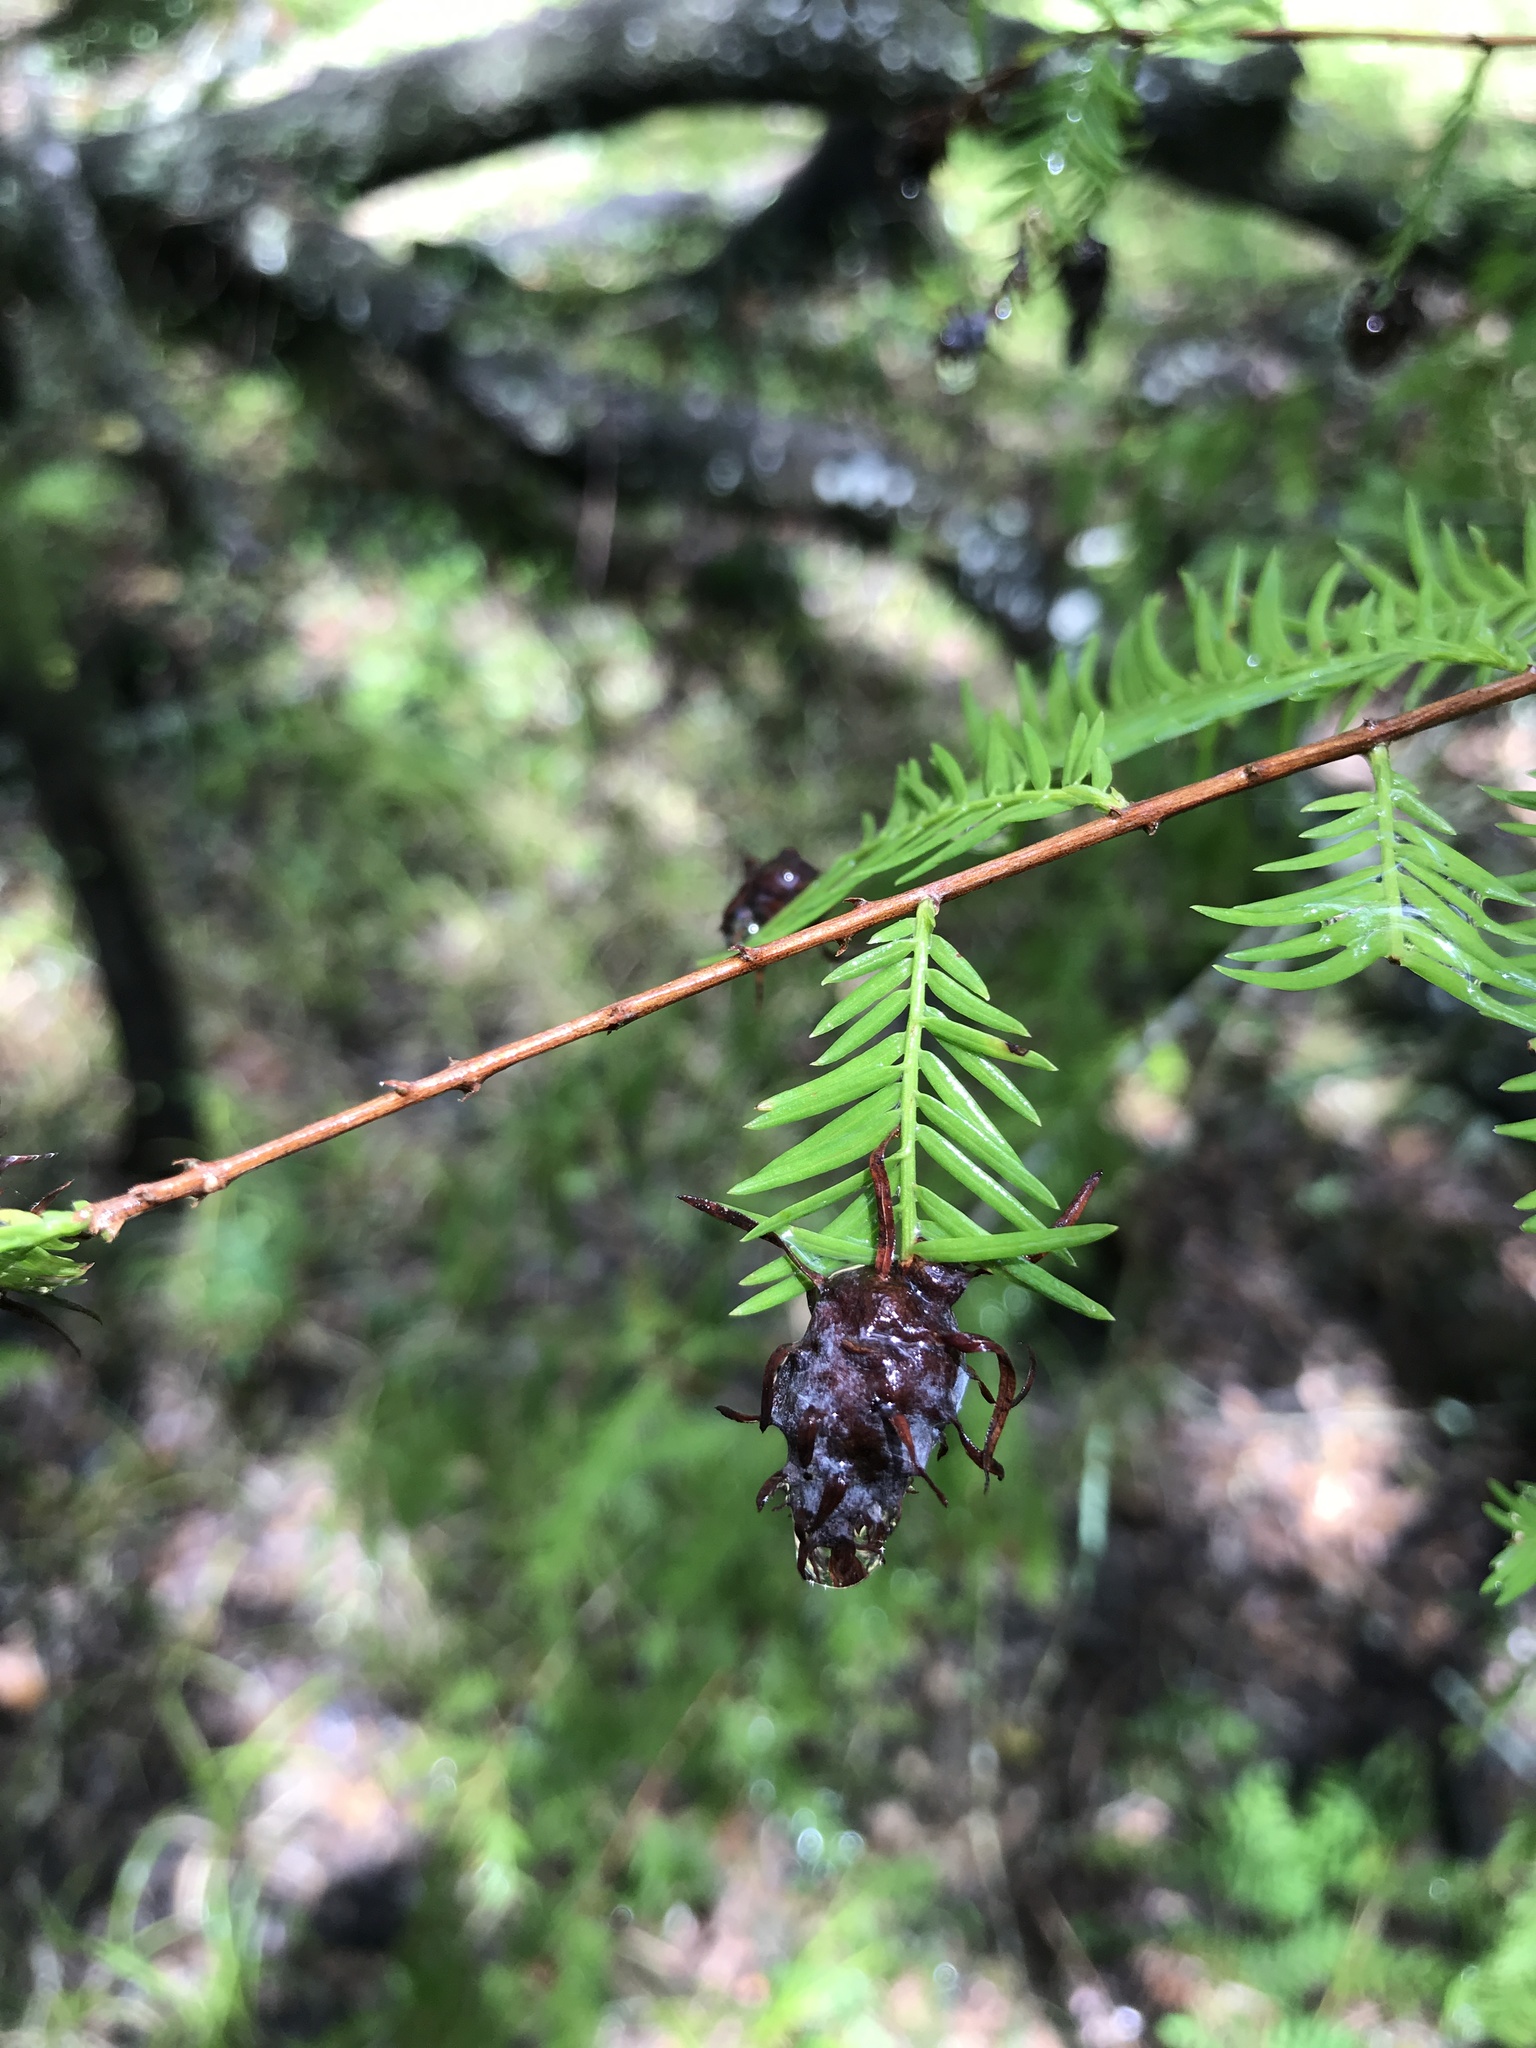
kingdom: Animalia
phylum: Arthropoda
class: Insecta
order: Diptera
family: Cecidomyiidae
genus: Taxodiomyia
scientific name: Taxodiomyia cupressiananassa
